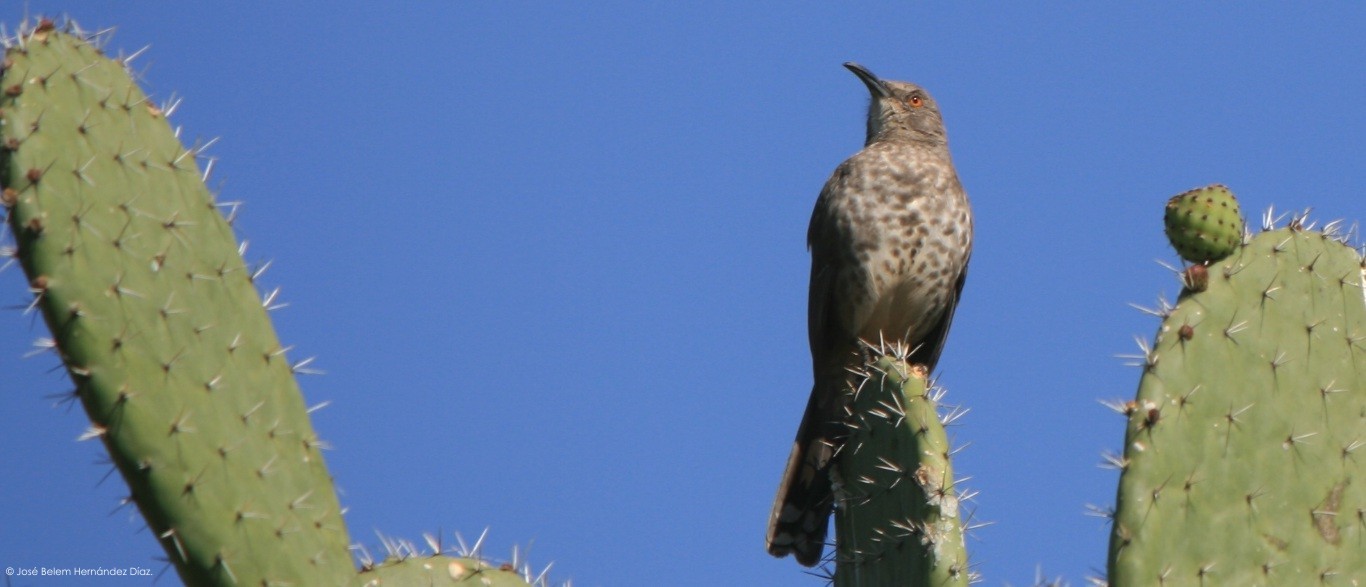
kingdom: Animalia
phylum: Chordata
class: Aves
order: Passeriformes
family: Mimidae
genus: Toxostoma
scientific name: Toxostoma curvirostre
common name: Curve-billed thrasher
